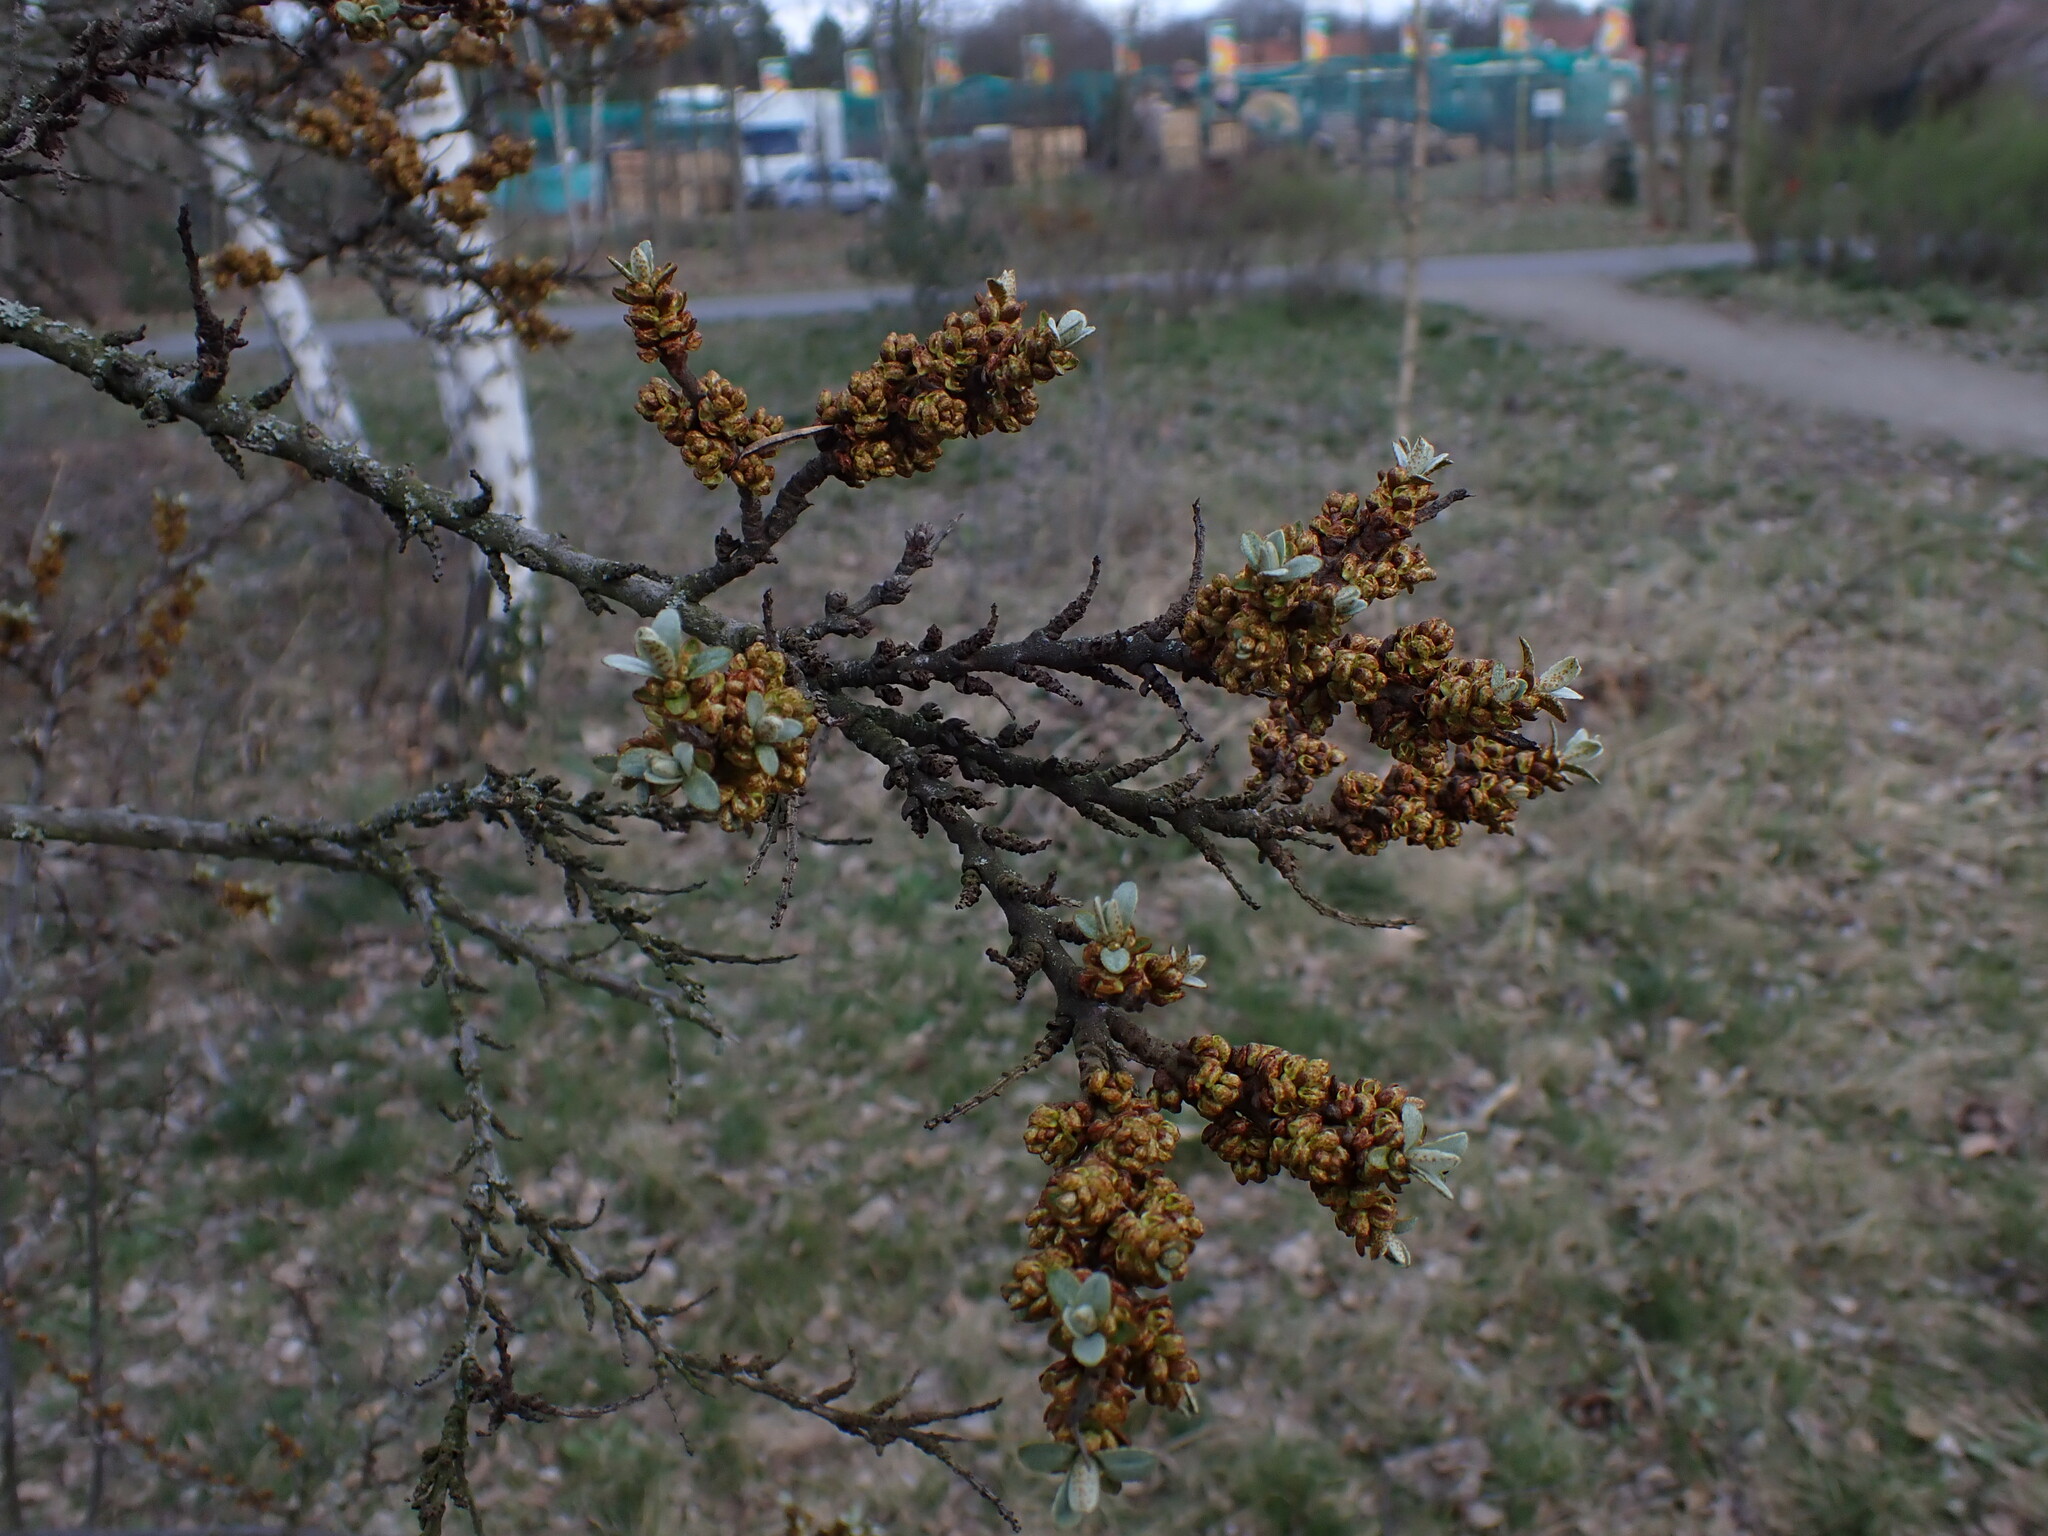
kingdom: Plantae
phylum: Tracheophyta
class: Magnoliopsida
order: Rosales
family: Elaeagnaceae
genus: Hippophae
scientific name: Hippophae rhamnoides
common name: Sea-buckthorn
